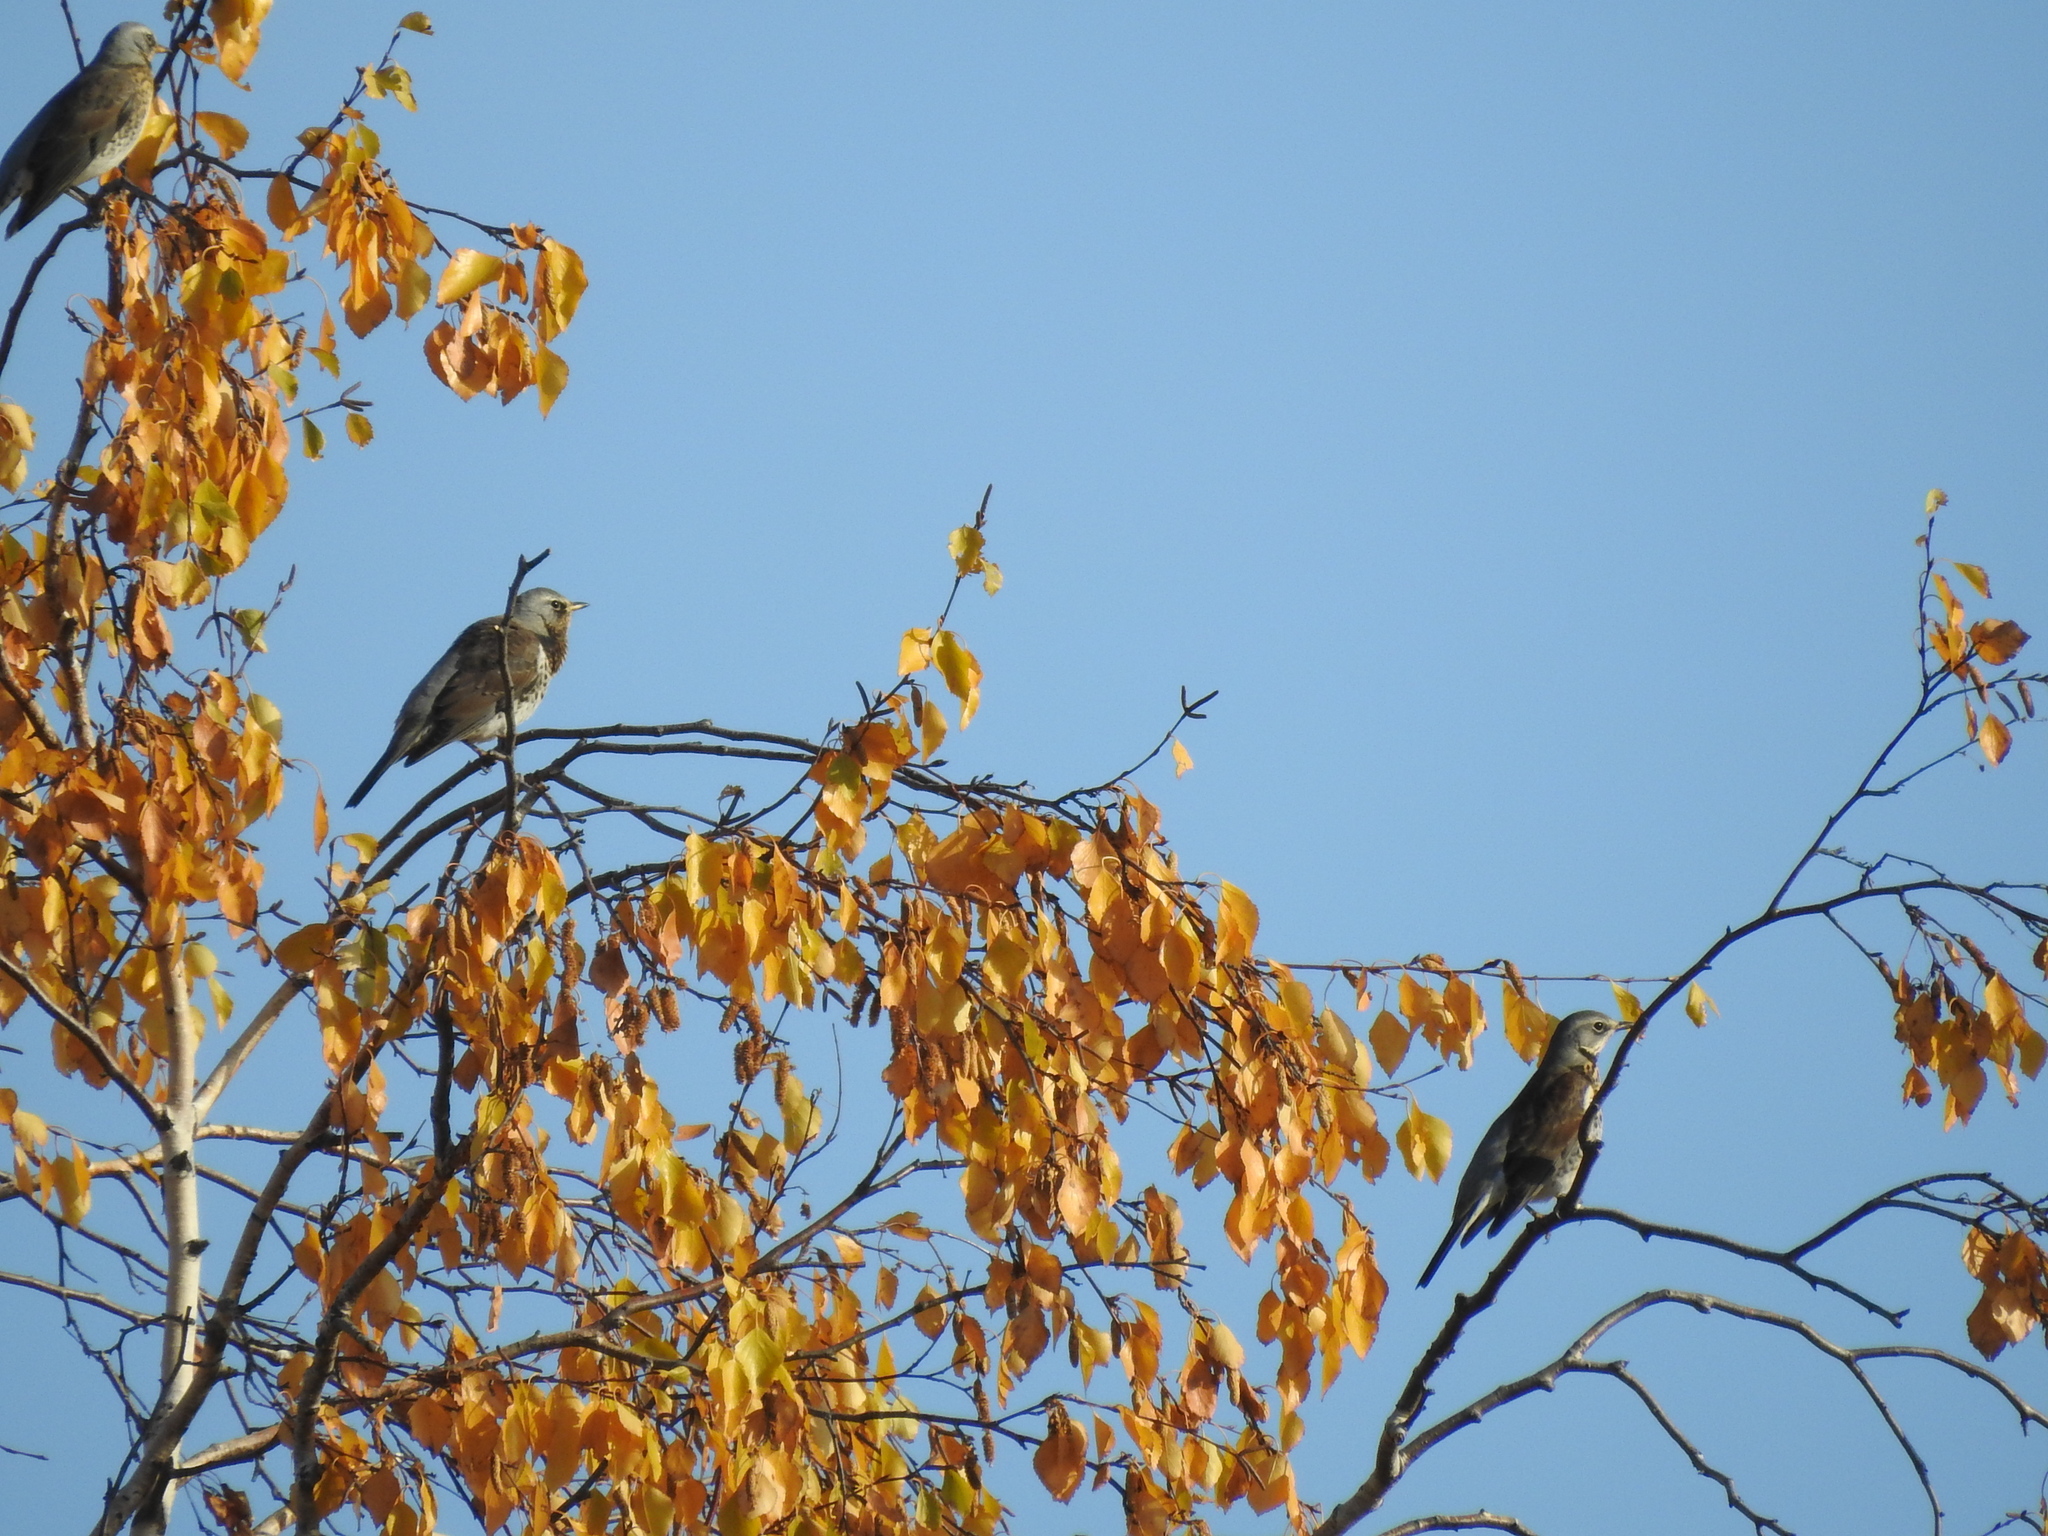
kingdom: Animalia
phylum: Chordata
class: Aves
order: Passeriformes
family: Turdidae
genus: Turdus
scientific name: Turdus pilaris
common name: Fieldfare
